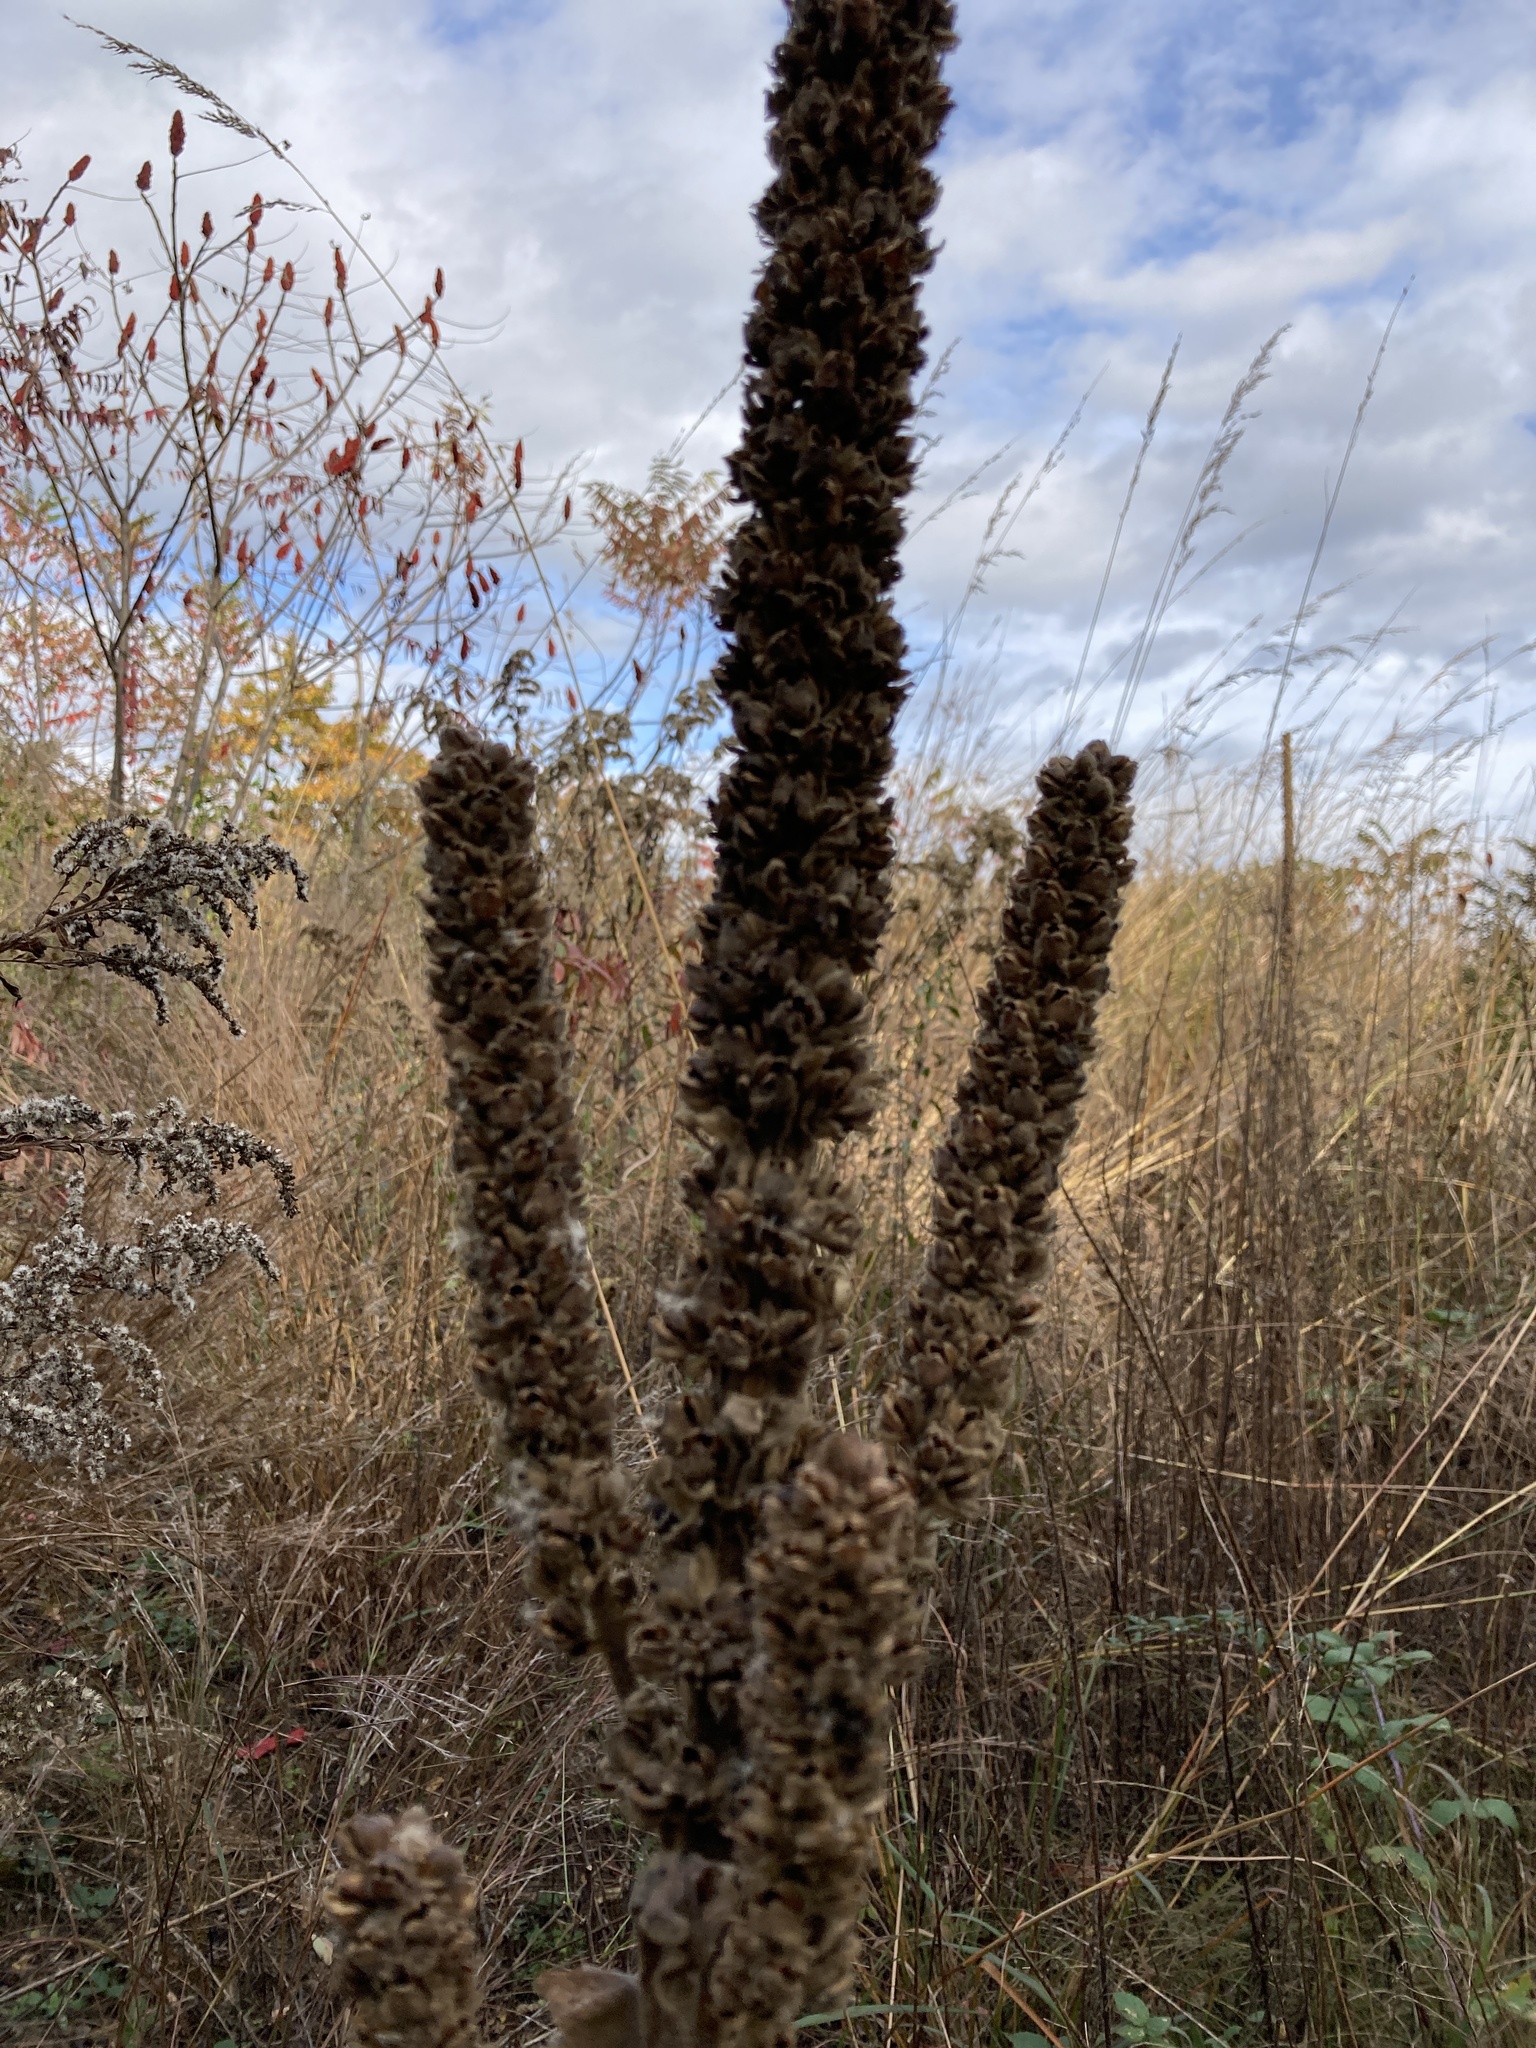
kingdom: Plantae
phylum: Tracheophyta
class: Magnoliopsida
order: Lamiales
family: Scrophulariaceae
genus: Verbascum
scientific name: Verbascum thapsus
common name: Common mullein
